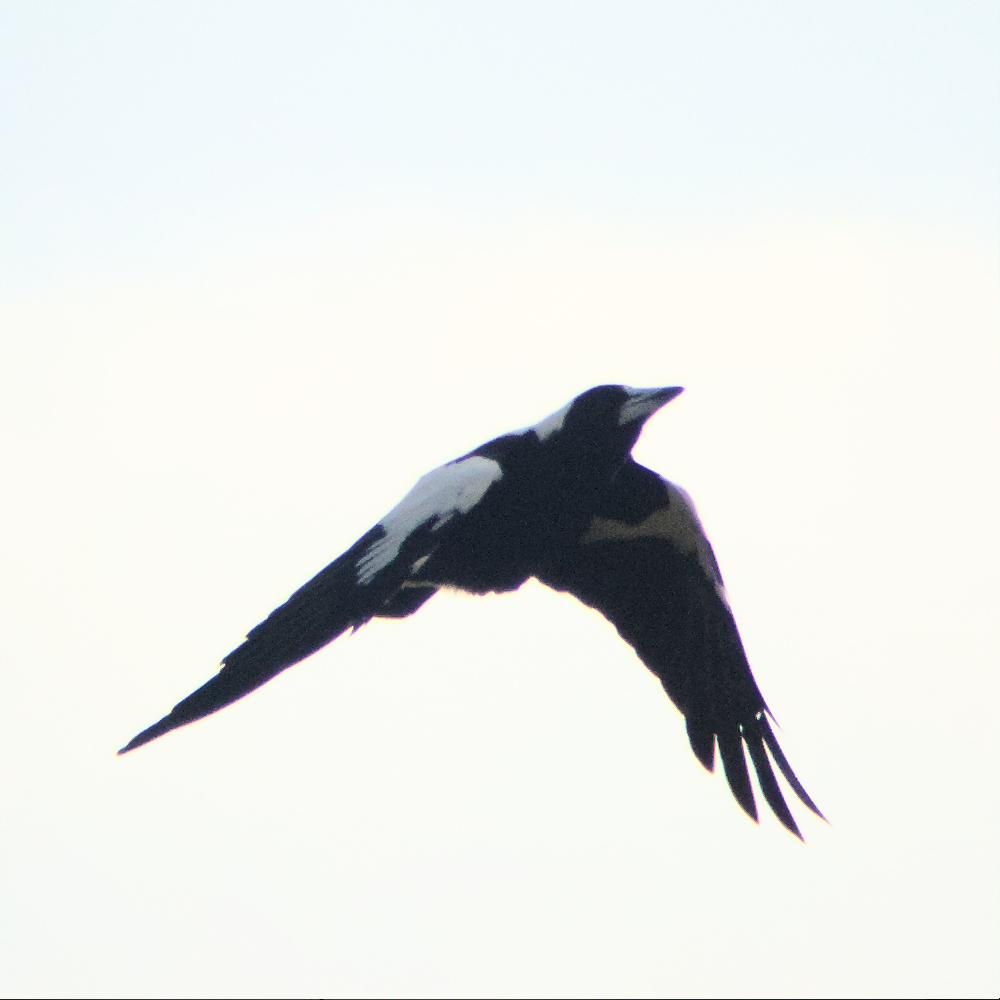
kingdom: Animalia
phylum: Chordata
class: Aves
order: Passeriformes
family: Cracticidae
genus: Gymnorhina
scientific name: Gymnorhina tibicen
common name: Australian magpie
